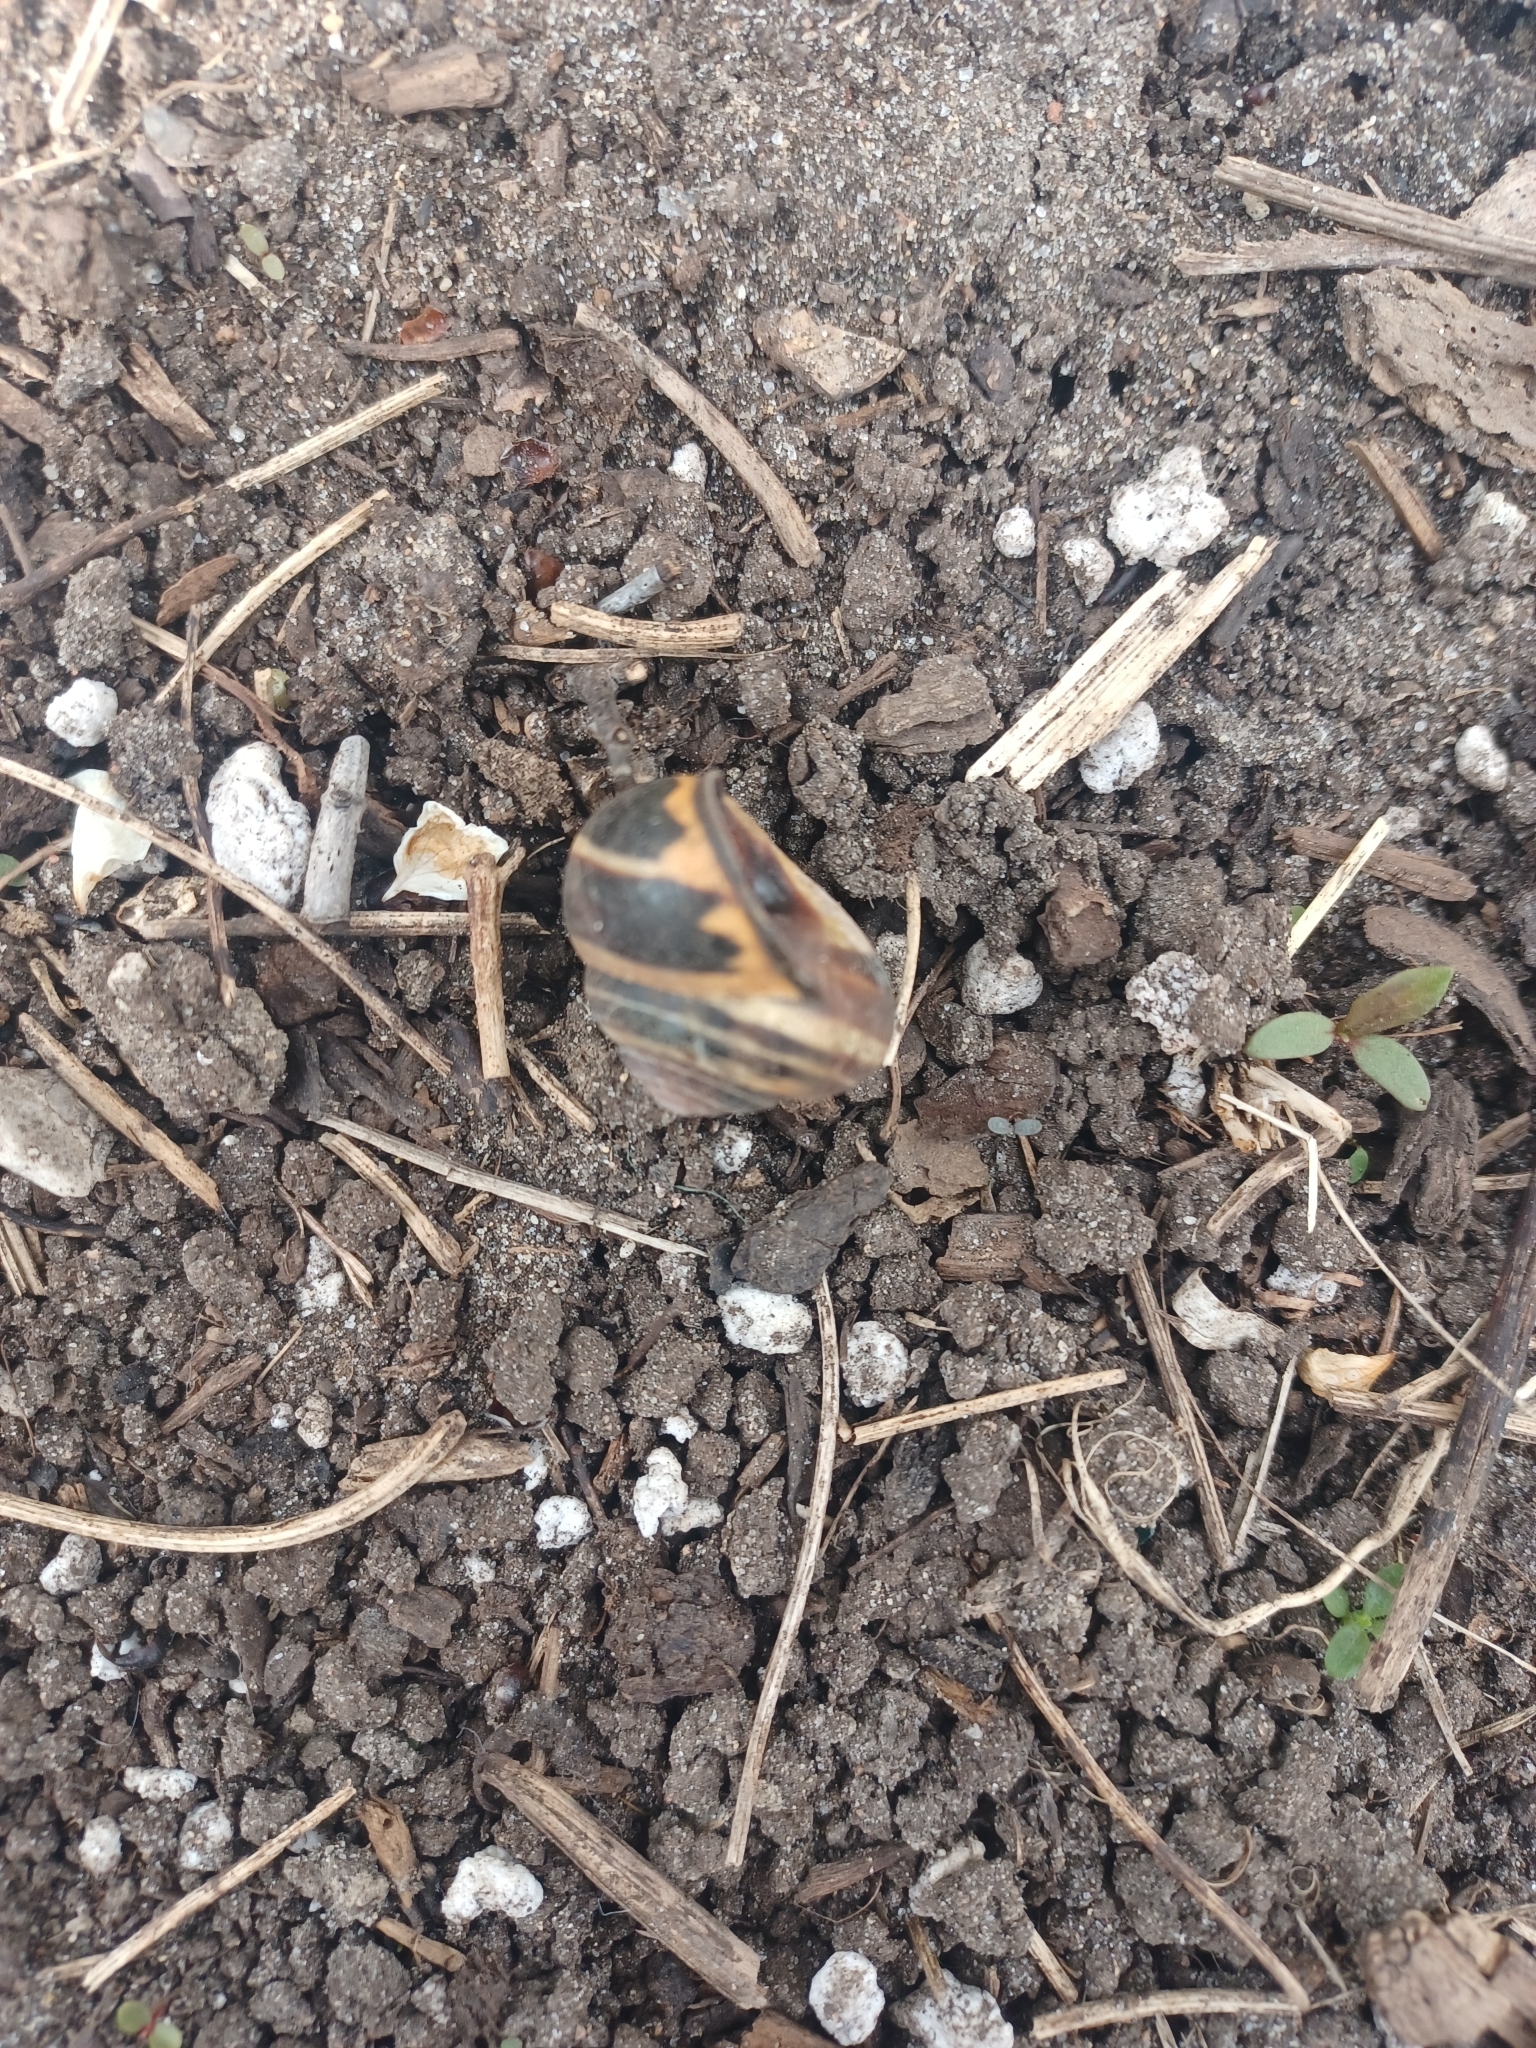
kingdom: Animalia
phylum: Mollusca
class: Gastropoda
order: Stylommatophora
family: Helicidae
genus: Cepaea
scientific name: Cepaea nemoralis
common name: Grovesnail
